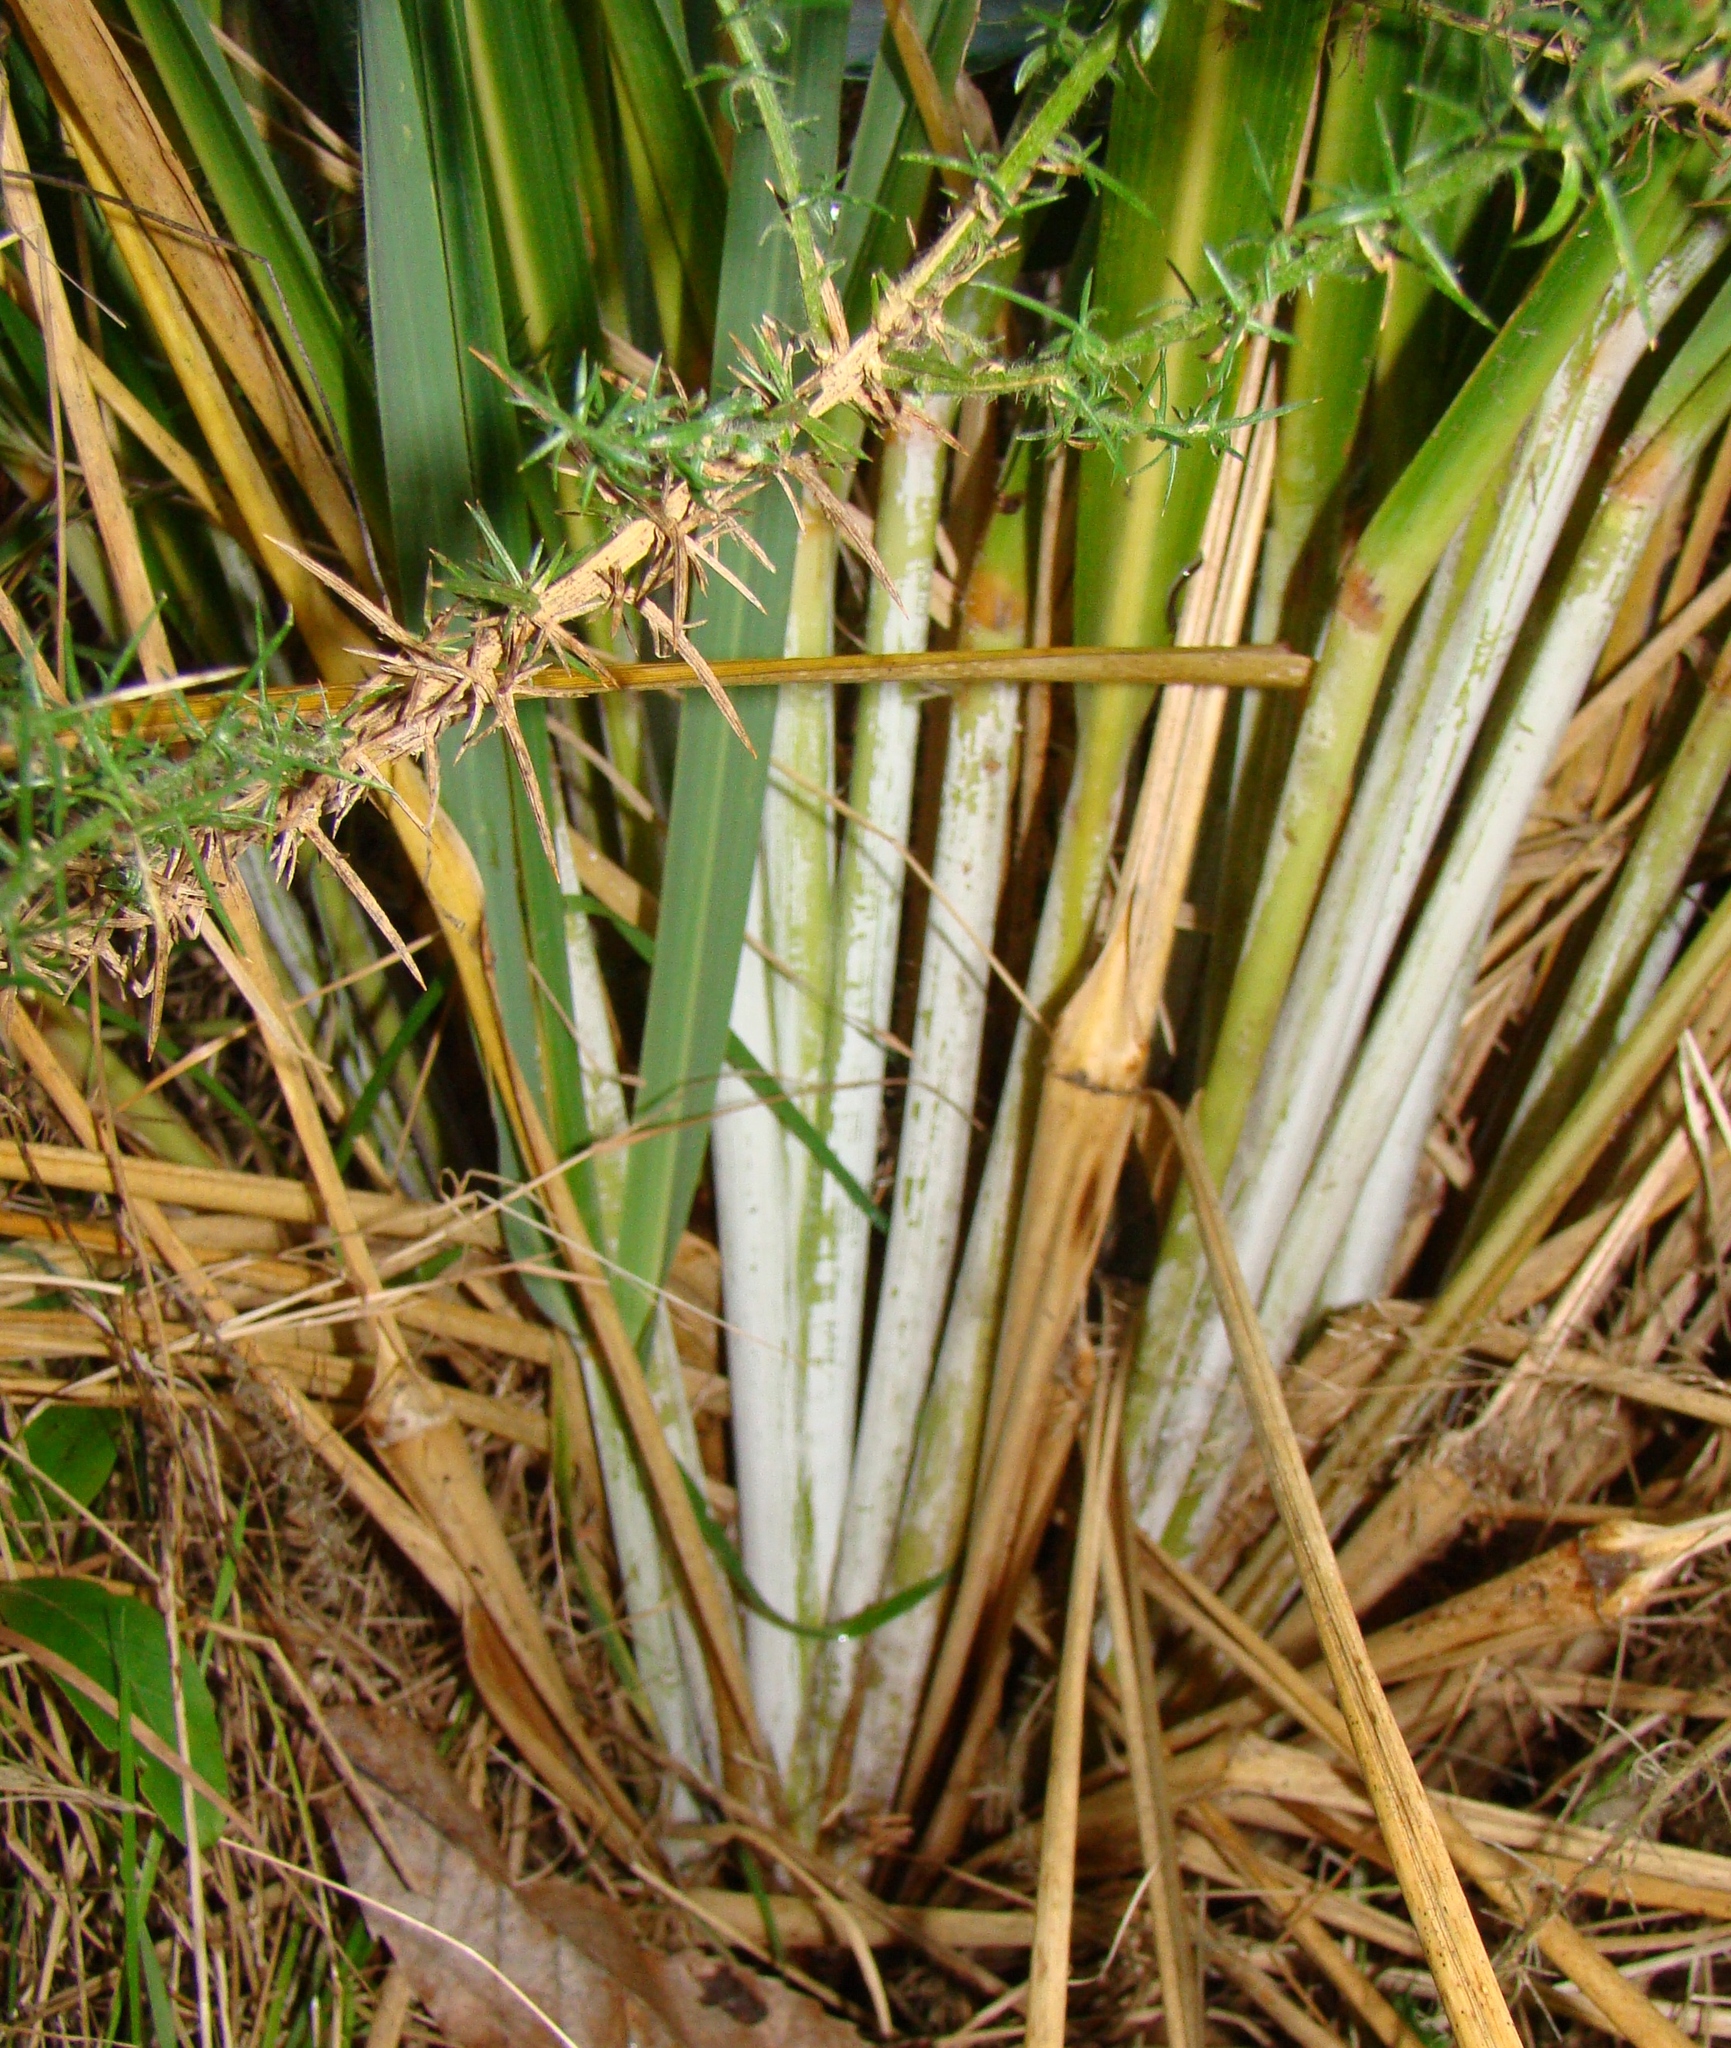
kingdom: Plantae
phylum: Tracheophyta
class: Liliopsida
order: Poales
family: Poaceae
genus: Austroderia
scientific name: Austroderia fulvida
